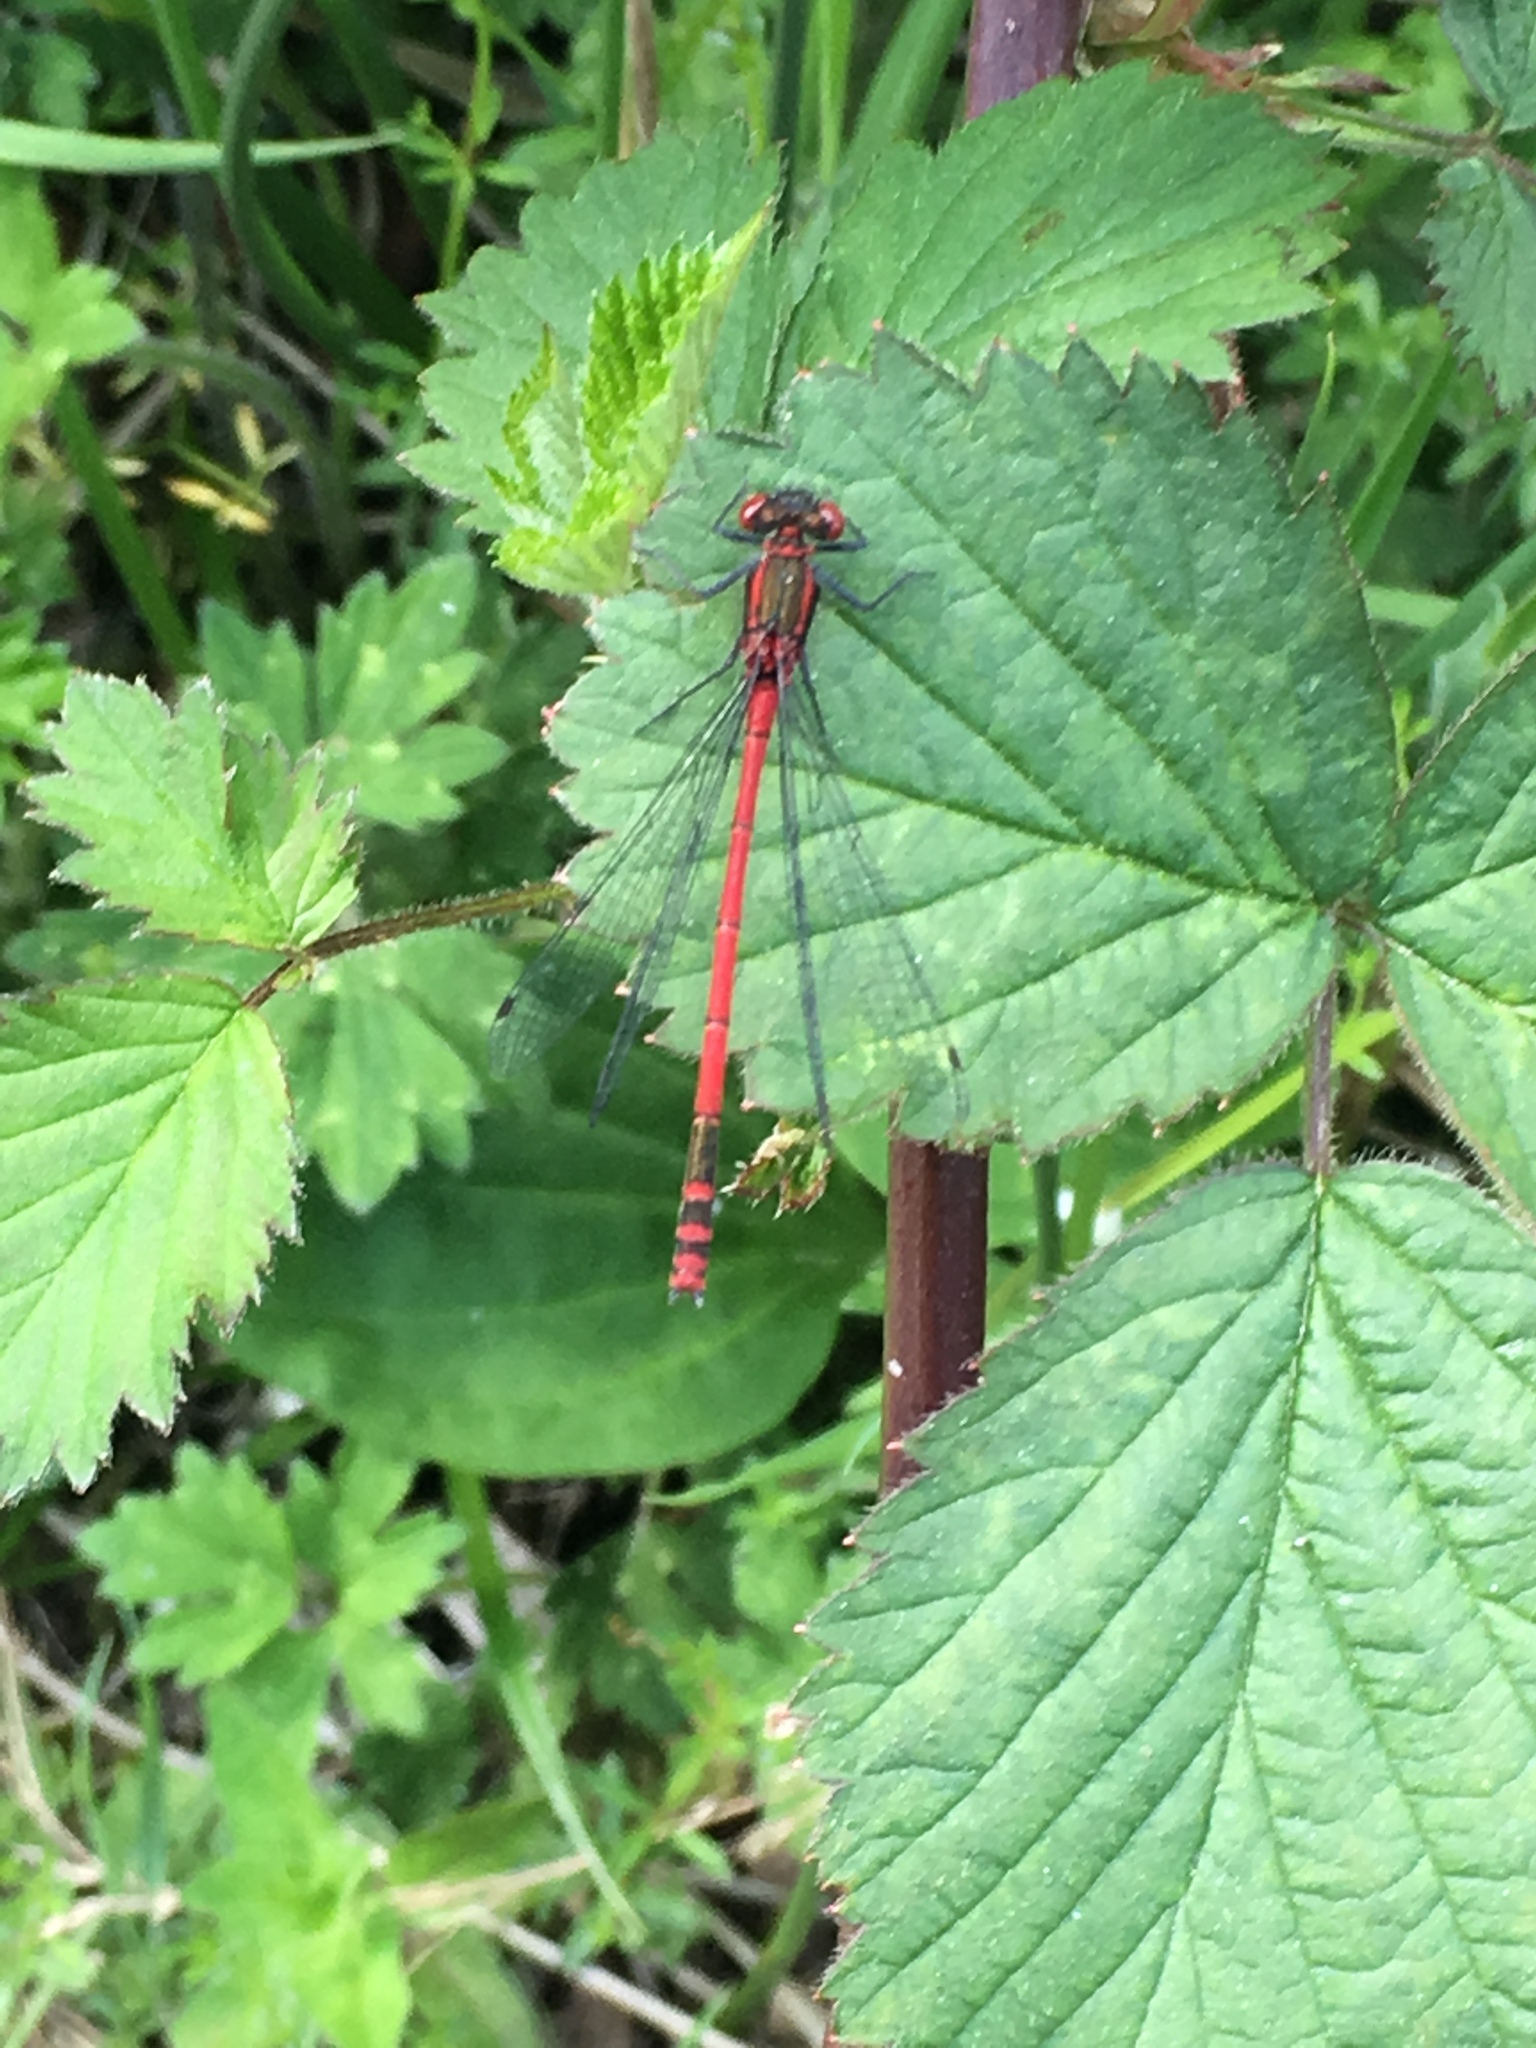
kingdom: Animalia
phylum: Arthropoda
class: Insecta
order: Odonata
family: Coenagrionidae
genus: Pyrrhosoma
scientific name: Pyrrhosoma nymphula
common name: Large red damsel
